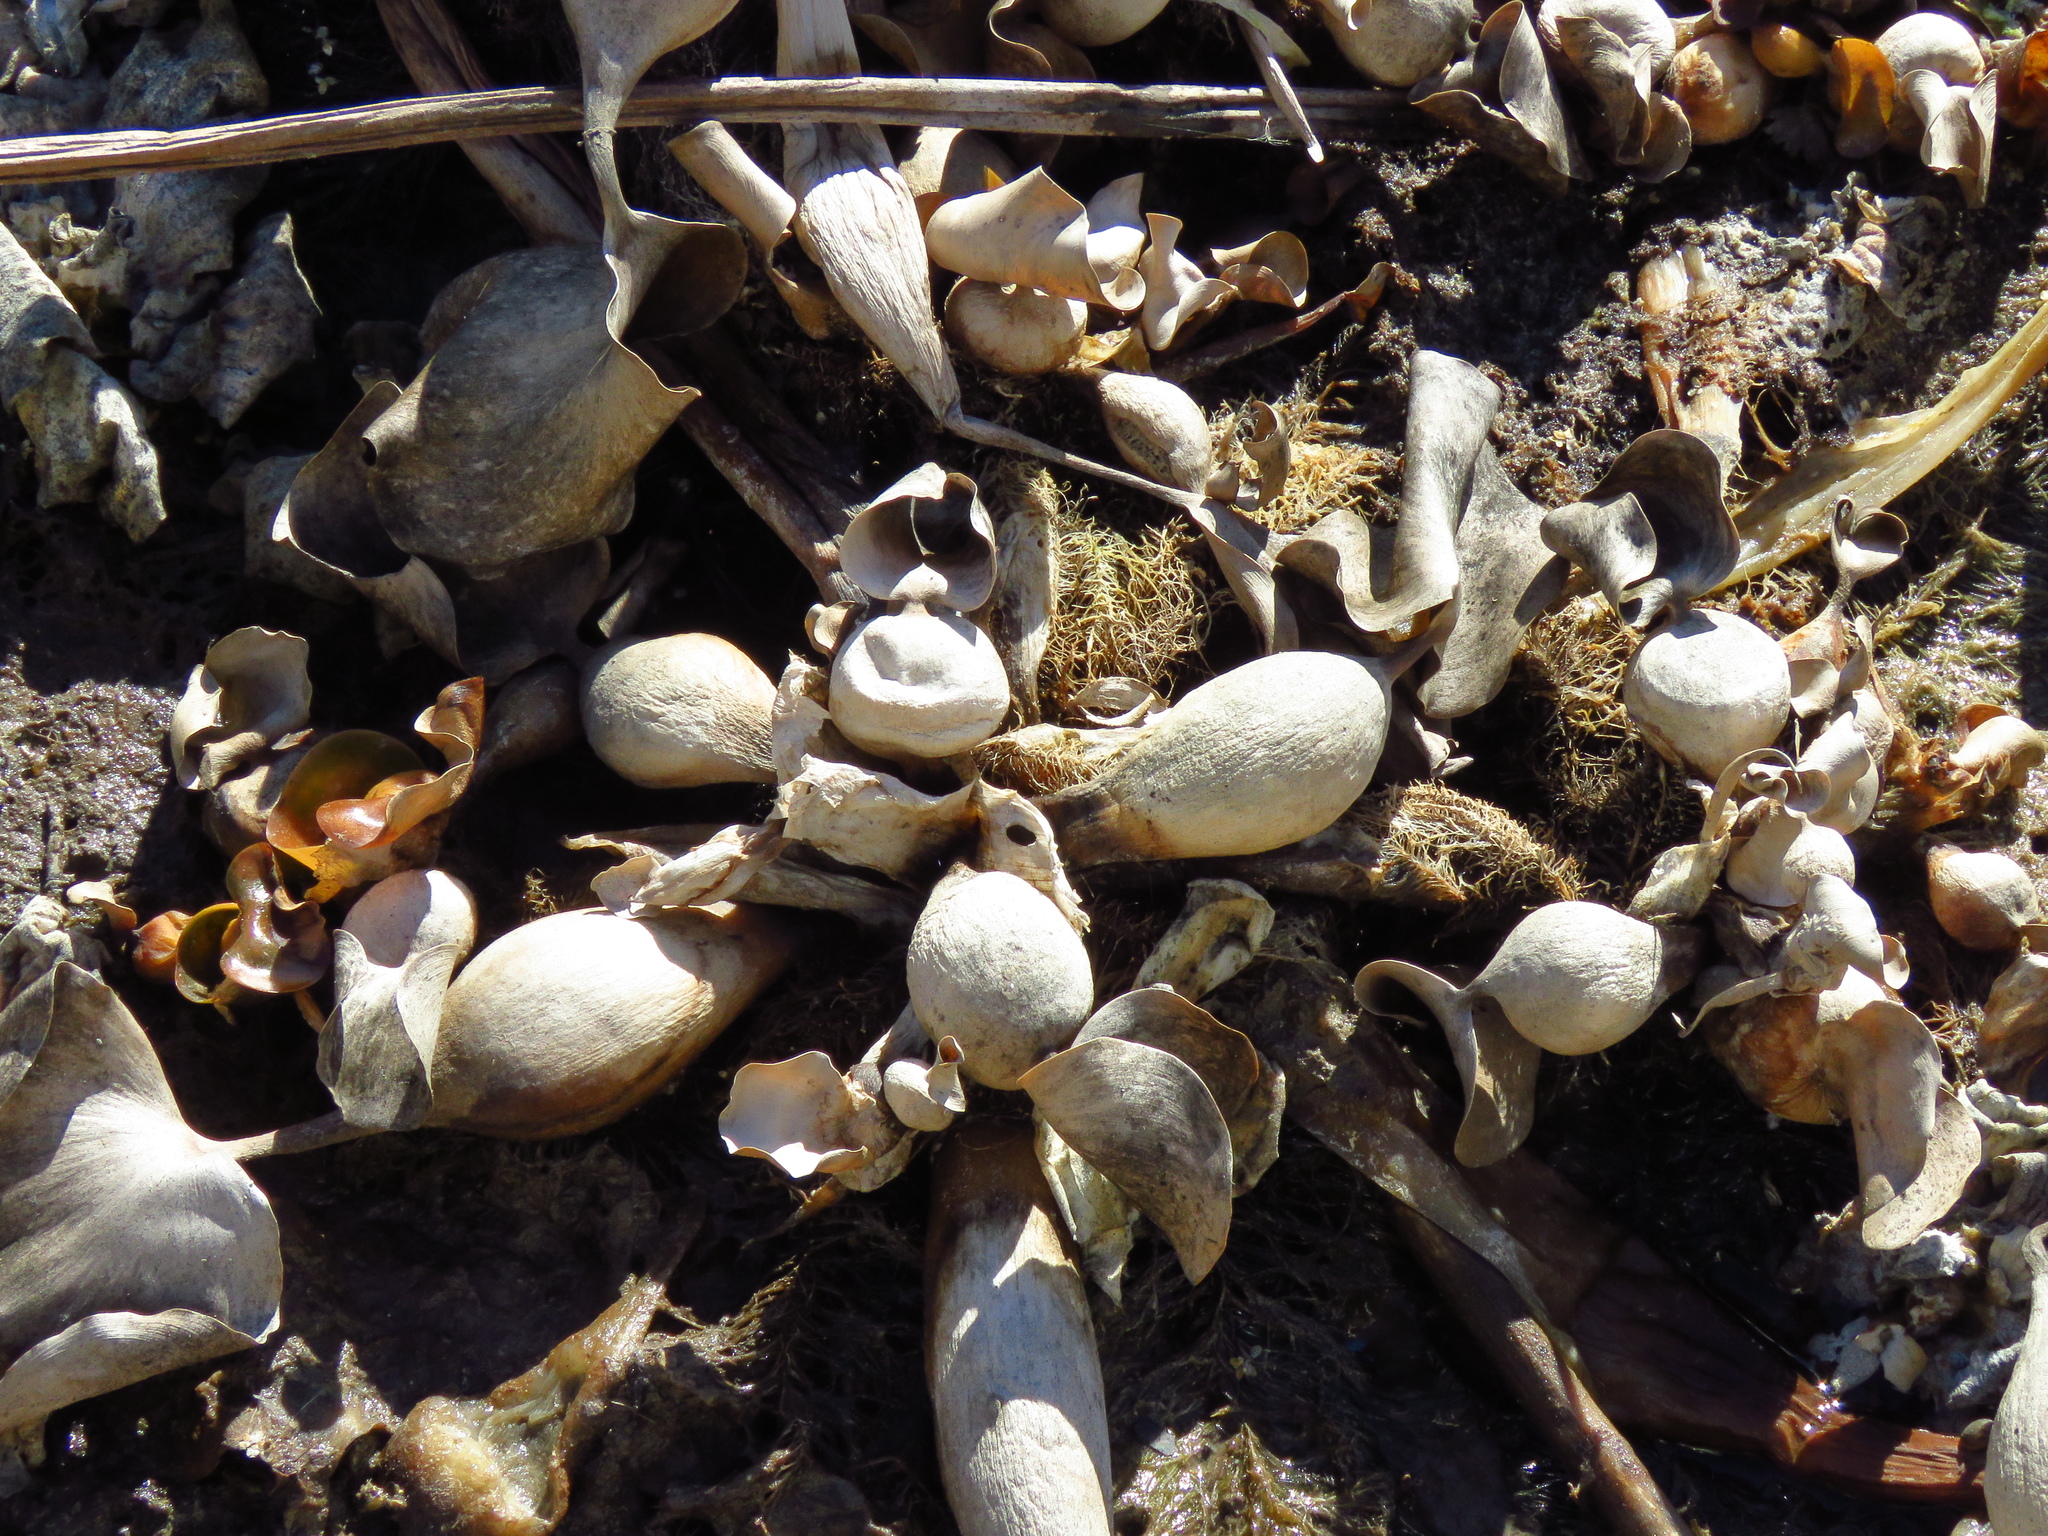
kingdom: Plantae
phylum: Tracheophyta
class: Liliopsida
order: Commelinales
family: Pontederiaceae
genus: Pontederia
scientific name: Pontederia crassipes
